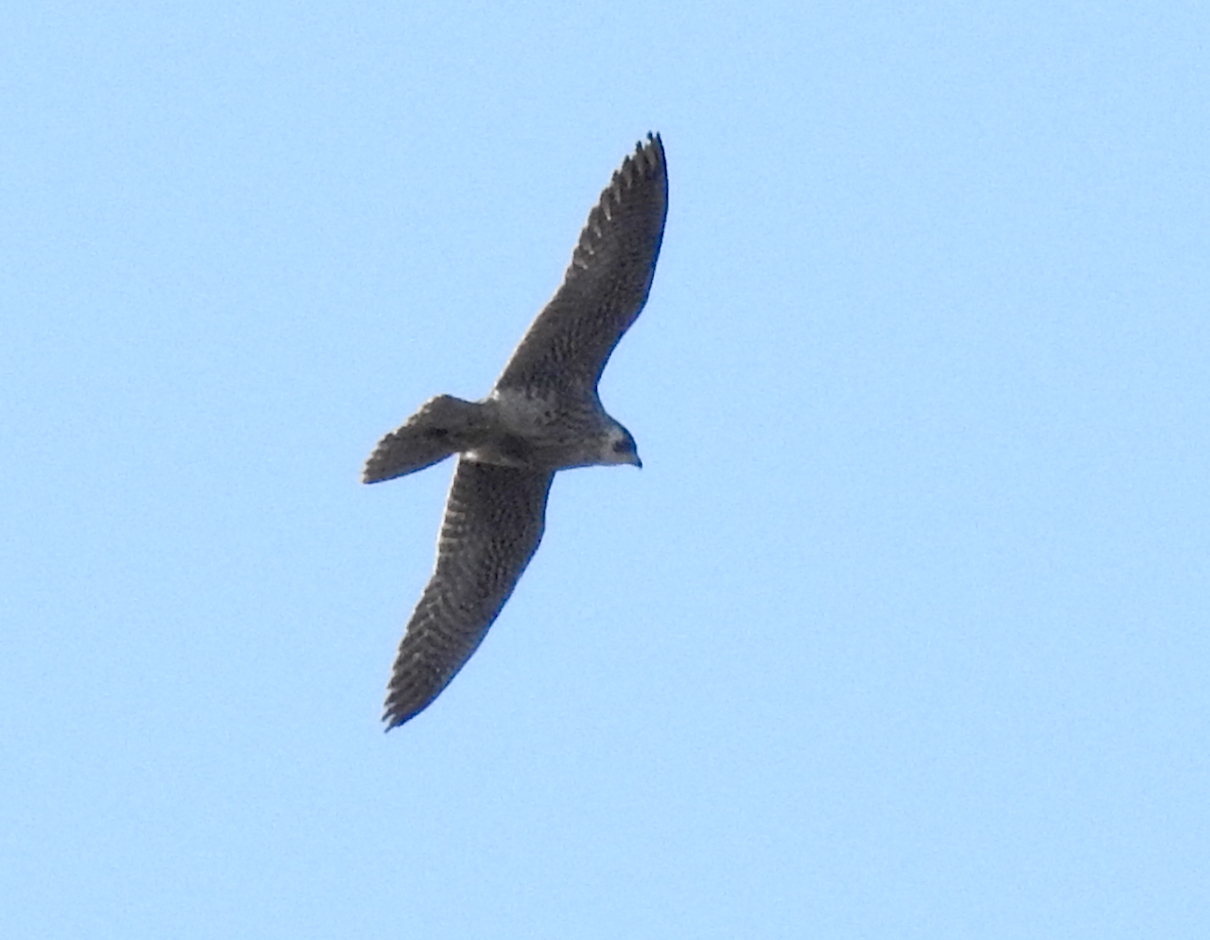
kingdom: Animalia
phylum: Chordata
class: Aves
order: Falconiformes
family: Falconidae
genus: Falco
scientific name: Falco peregrinus
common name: Peregrine falcon
